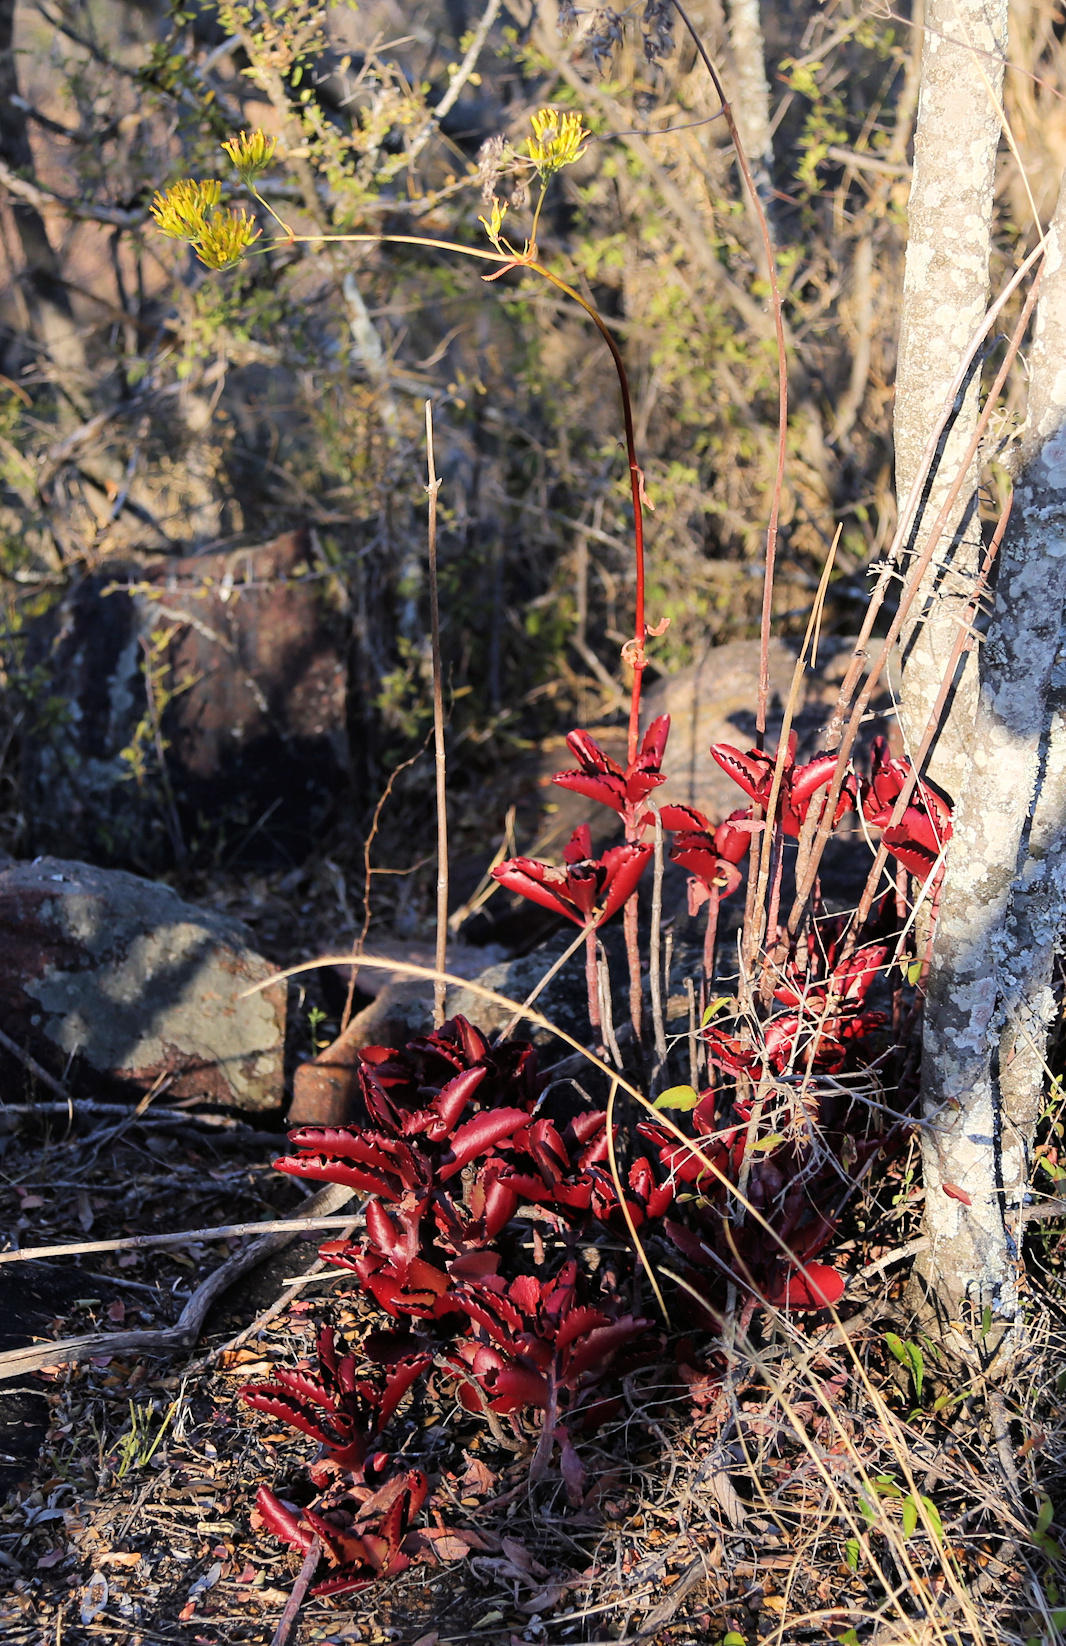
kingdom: Plantae
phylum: Tracheophyta
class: Magnoliopsida
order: Saxifragales
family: Crassulaceae
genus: Kalanchoe
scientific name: Kalanchoe sexangularis
